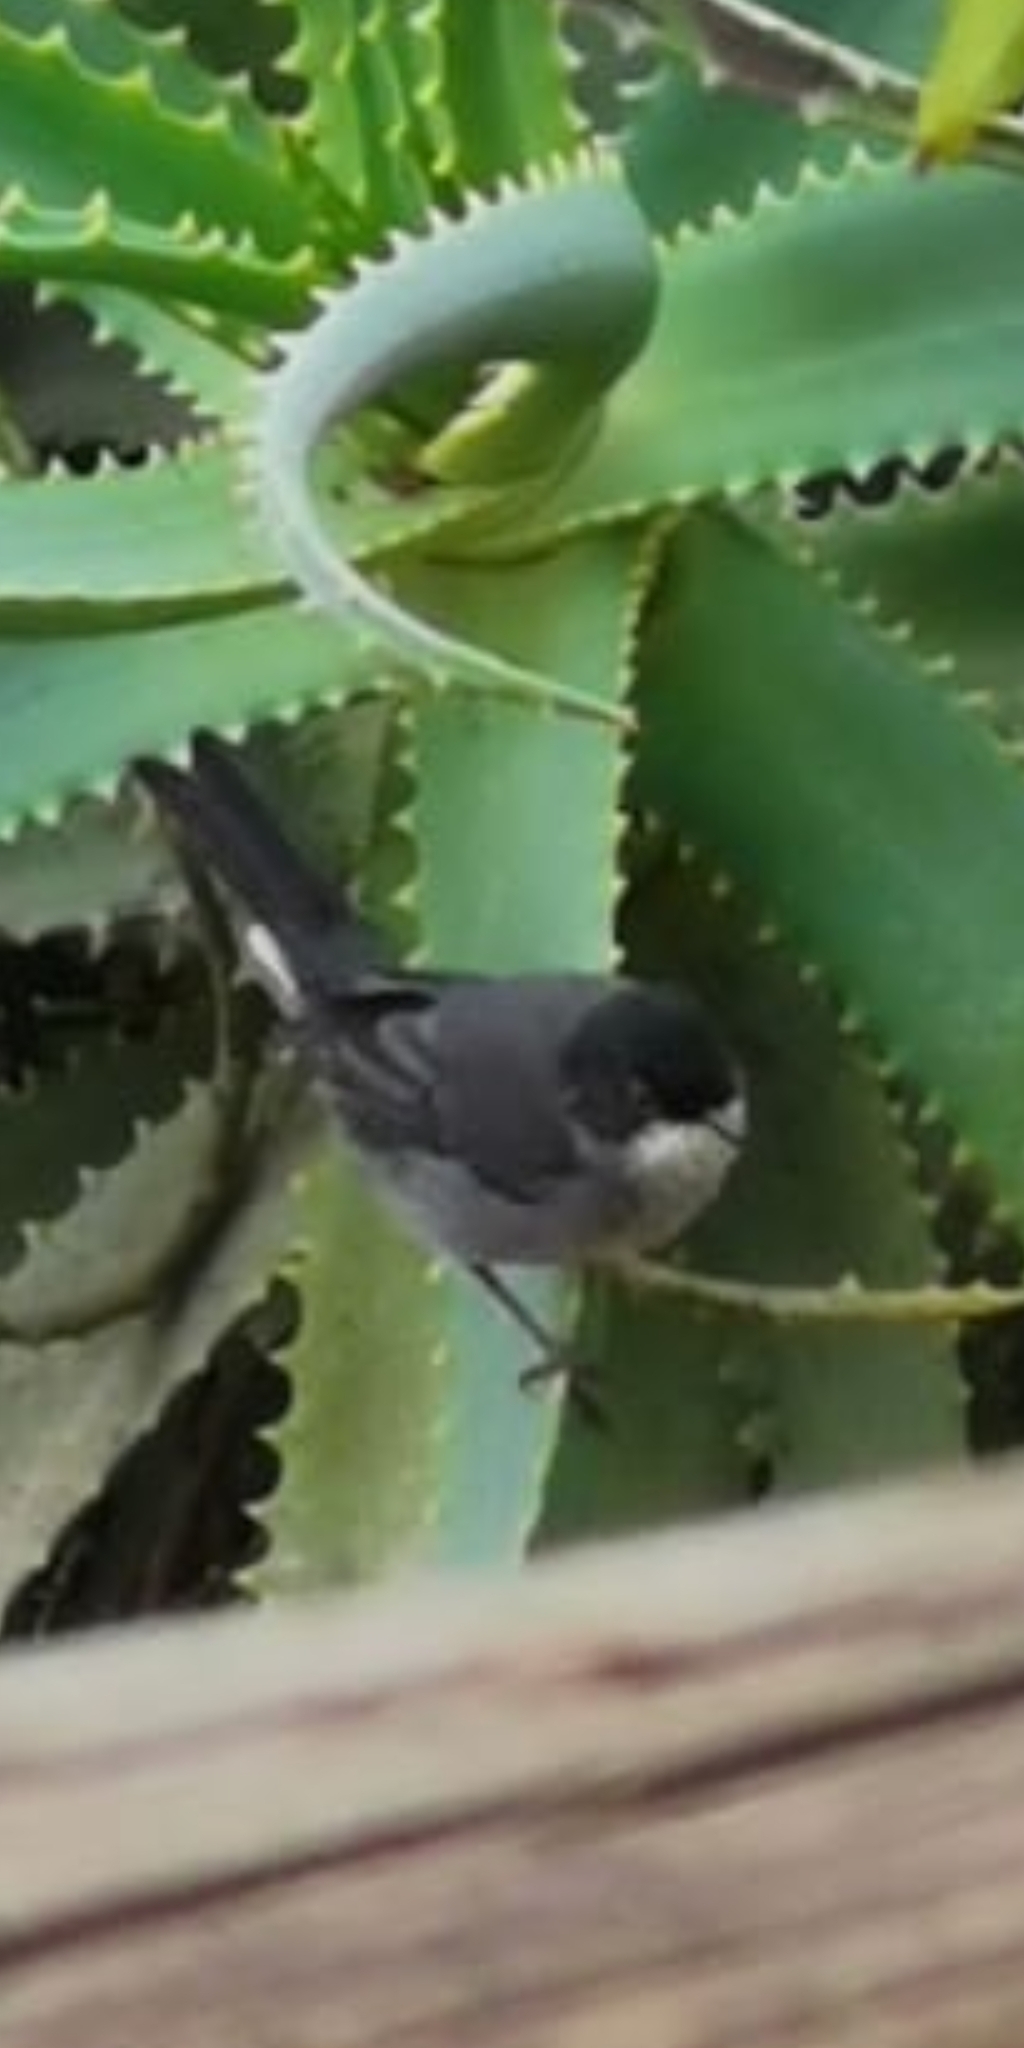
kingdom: Animalia
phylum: Chordata
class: Aves
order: Passeriformes
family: Sylviidae
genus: Curruca
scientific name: Curruca melanocephala
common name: Sardinian warbler
